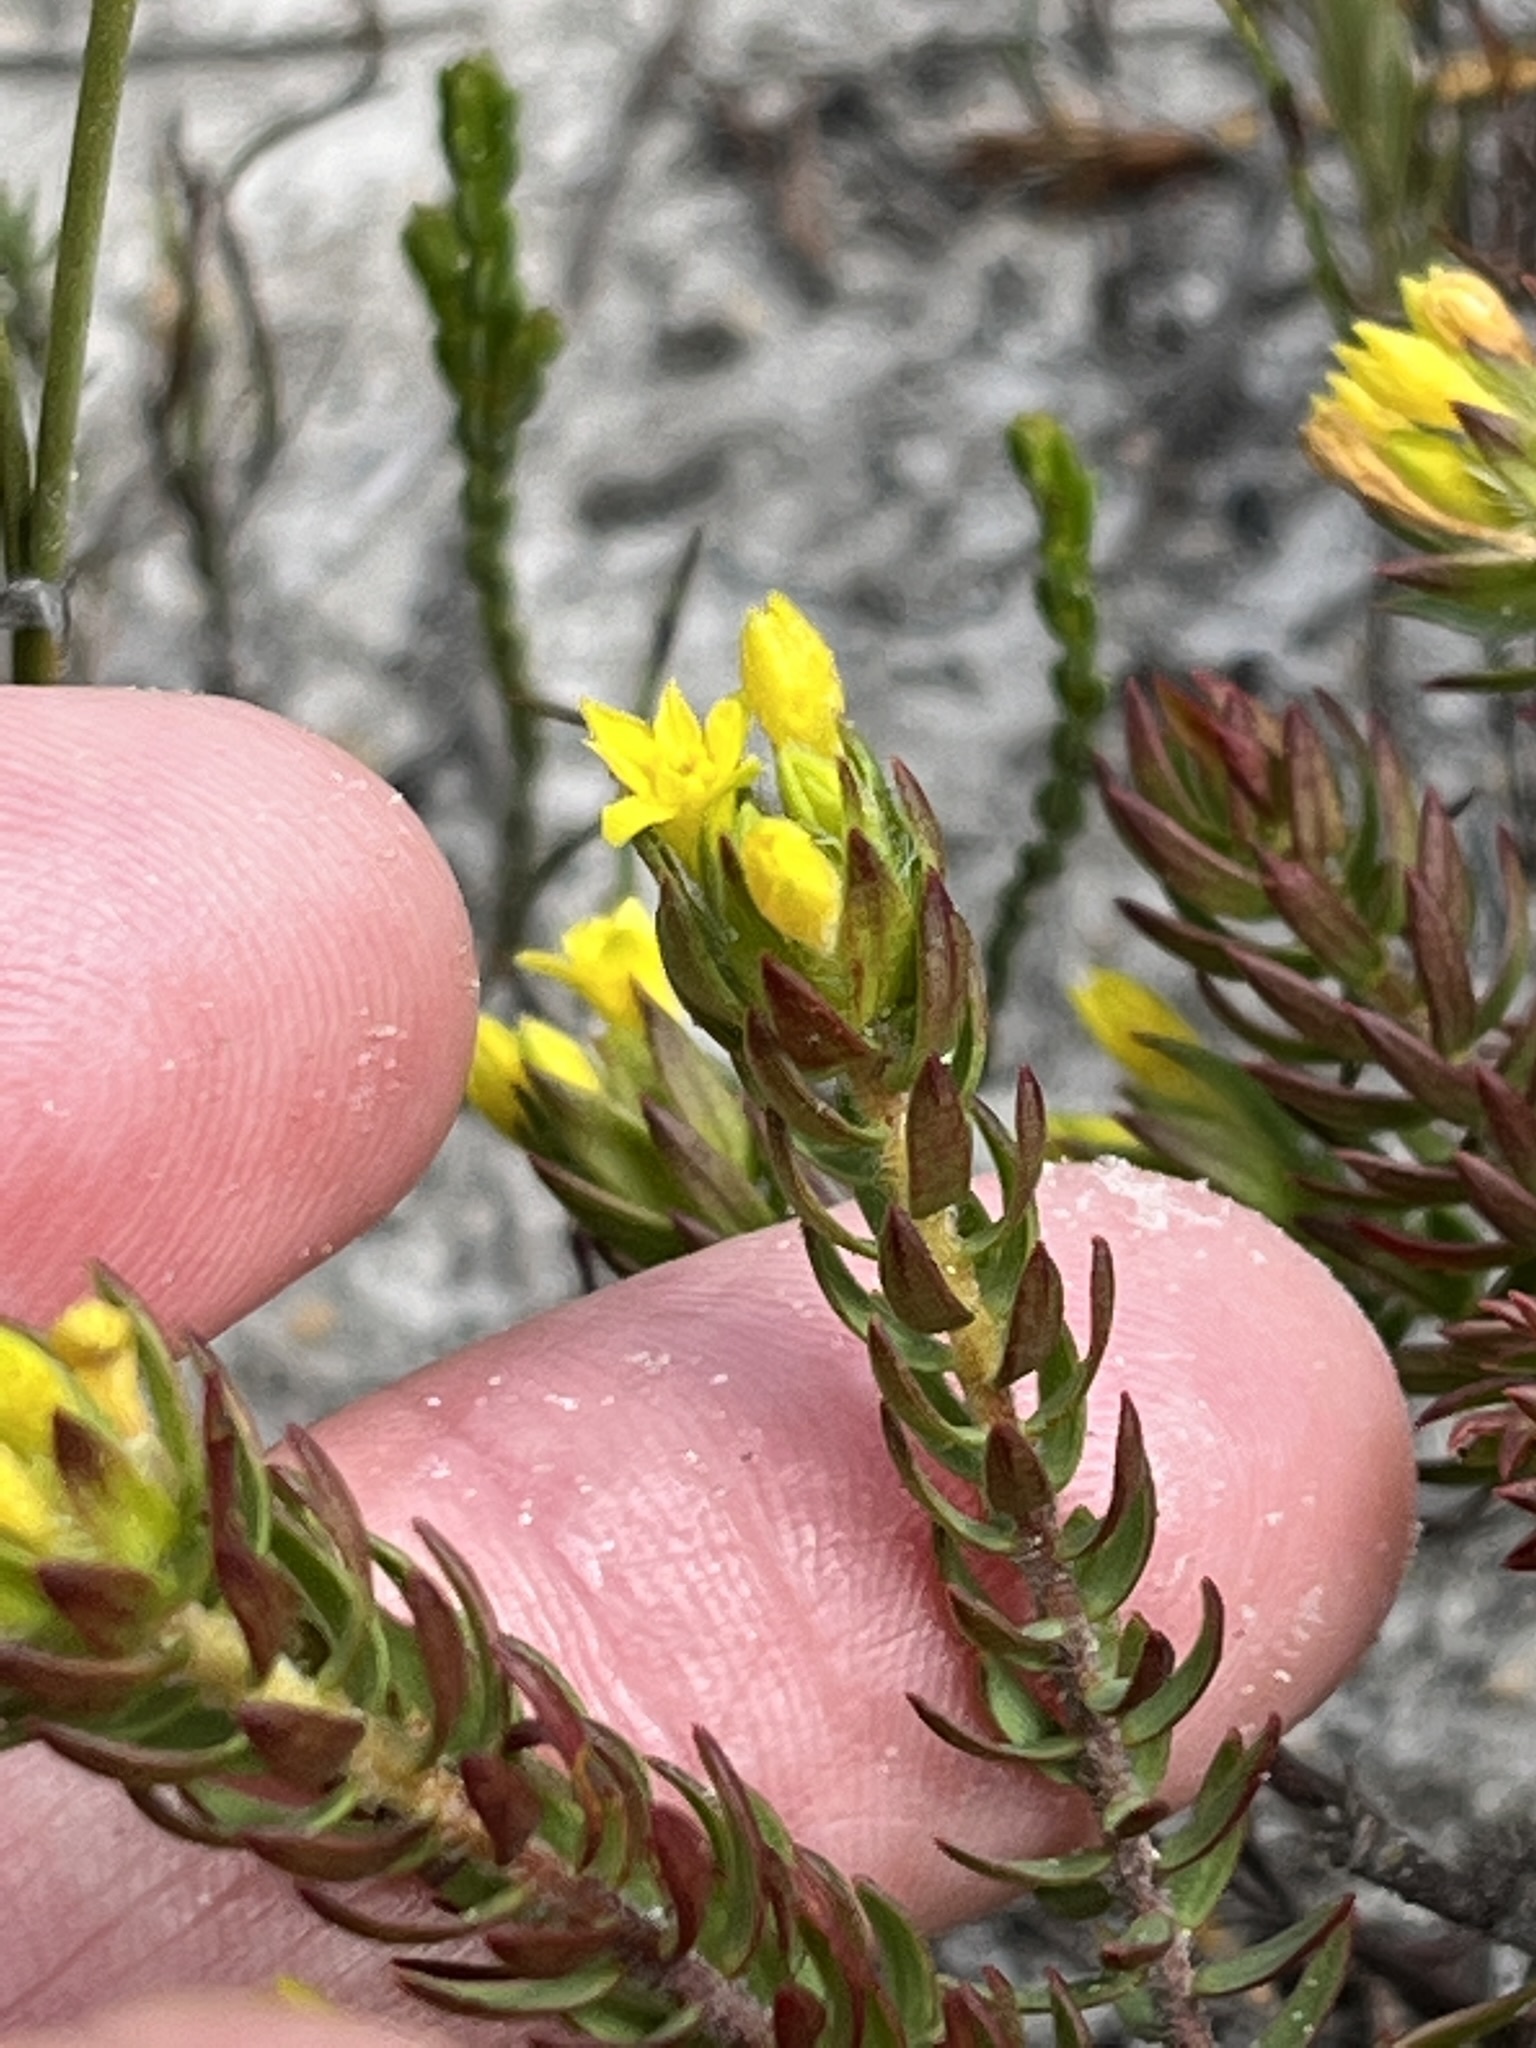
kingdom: Plantae
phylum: Tracheophyta
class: Magnoliopsida
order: Malvales
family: Thymelaeaceae
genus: Gnidia
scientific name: Gnidia juniperifolia
